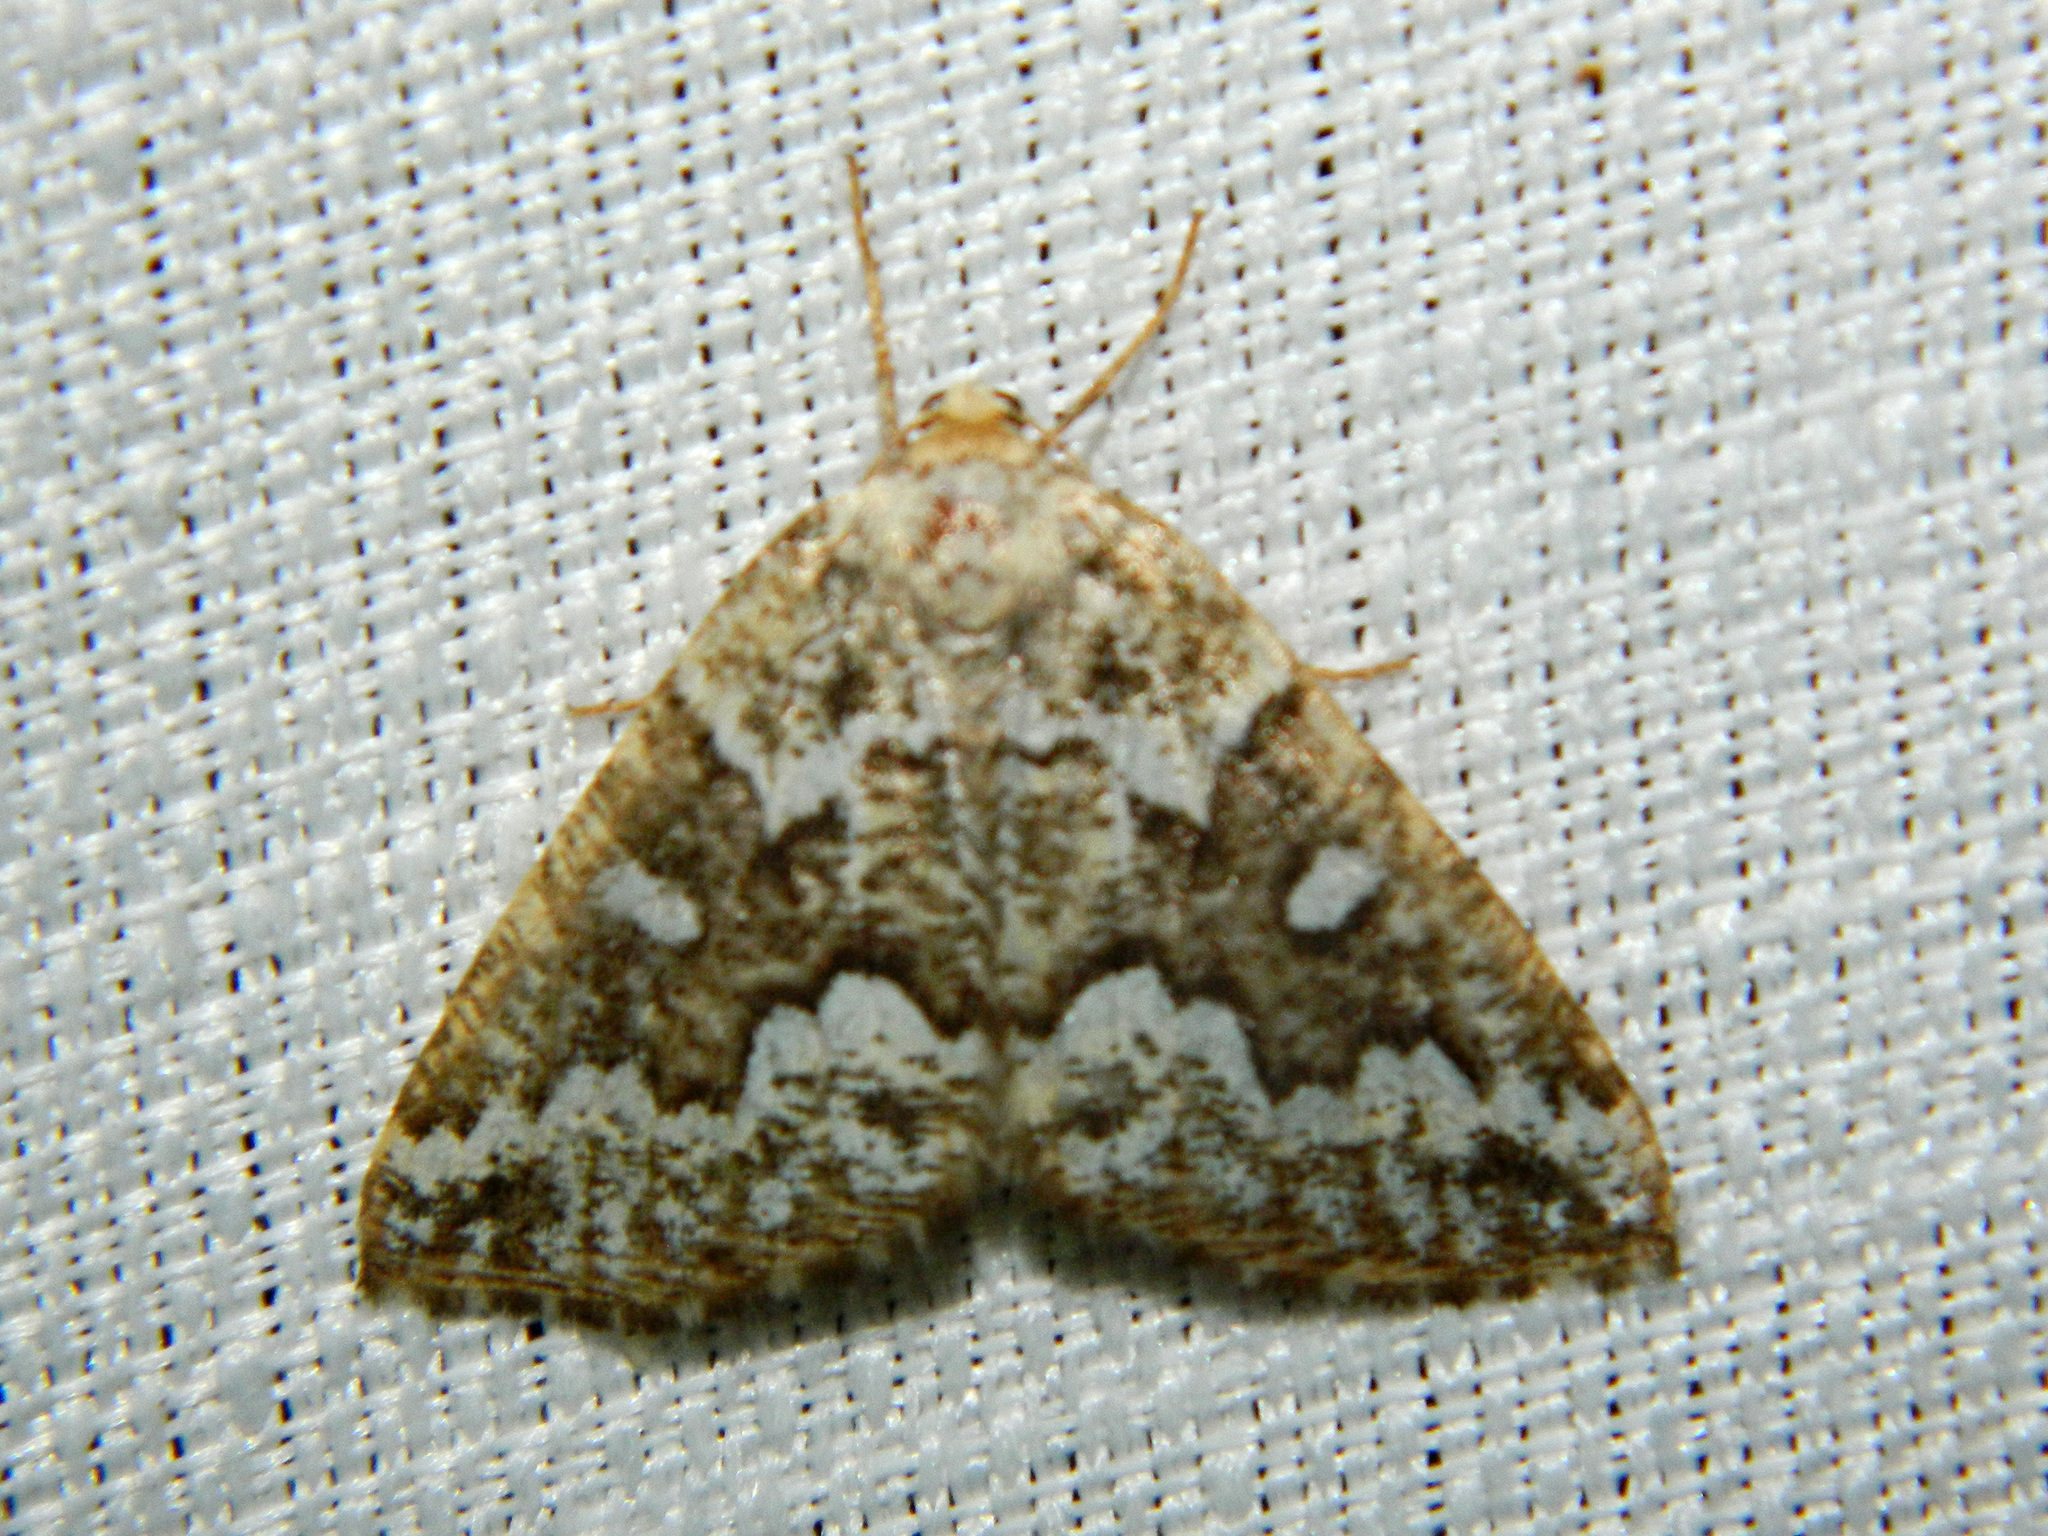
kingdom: Animalia
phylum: Arthropoda
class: Insecta
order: Lepidoptera
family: Geometridae
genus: Caripeta
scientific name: Caripeta divisata
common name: Gray spruce looper
